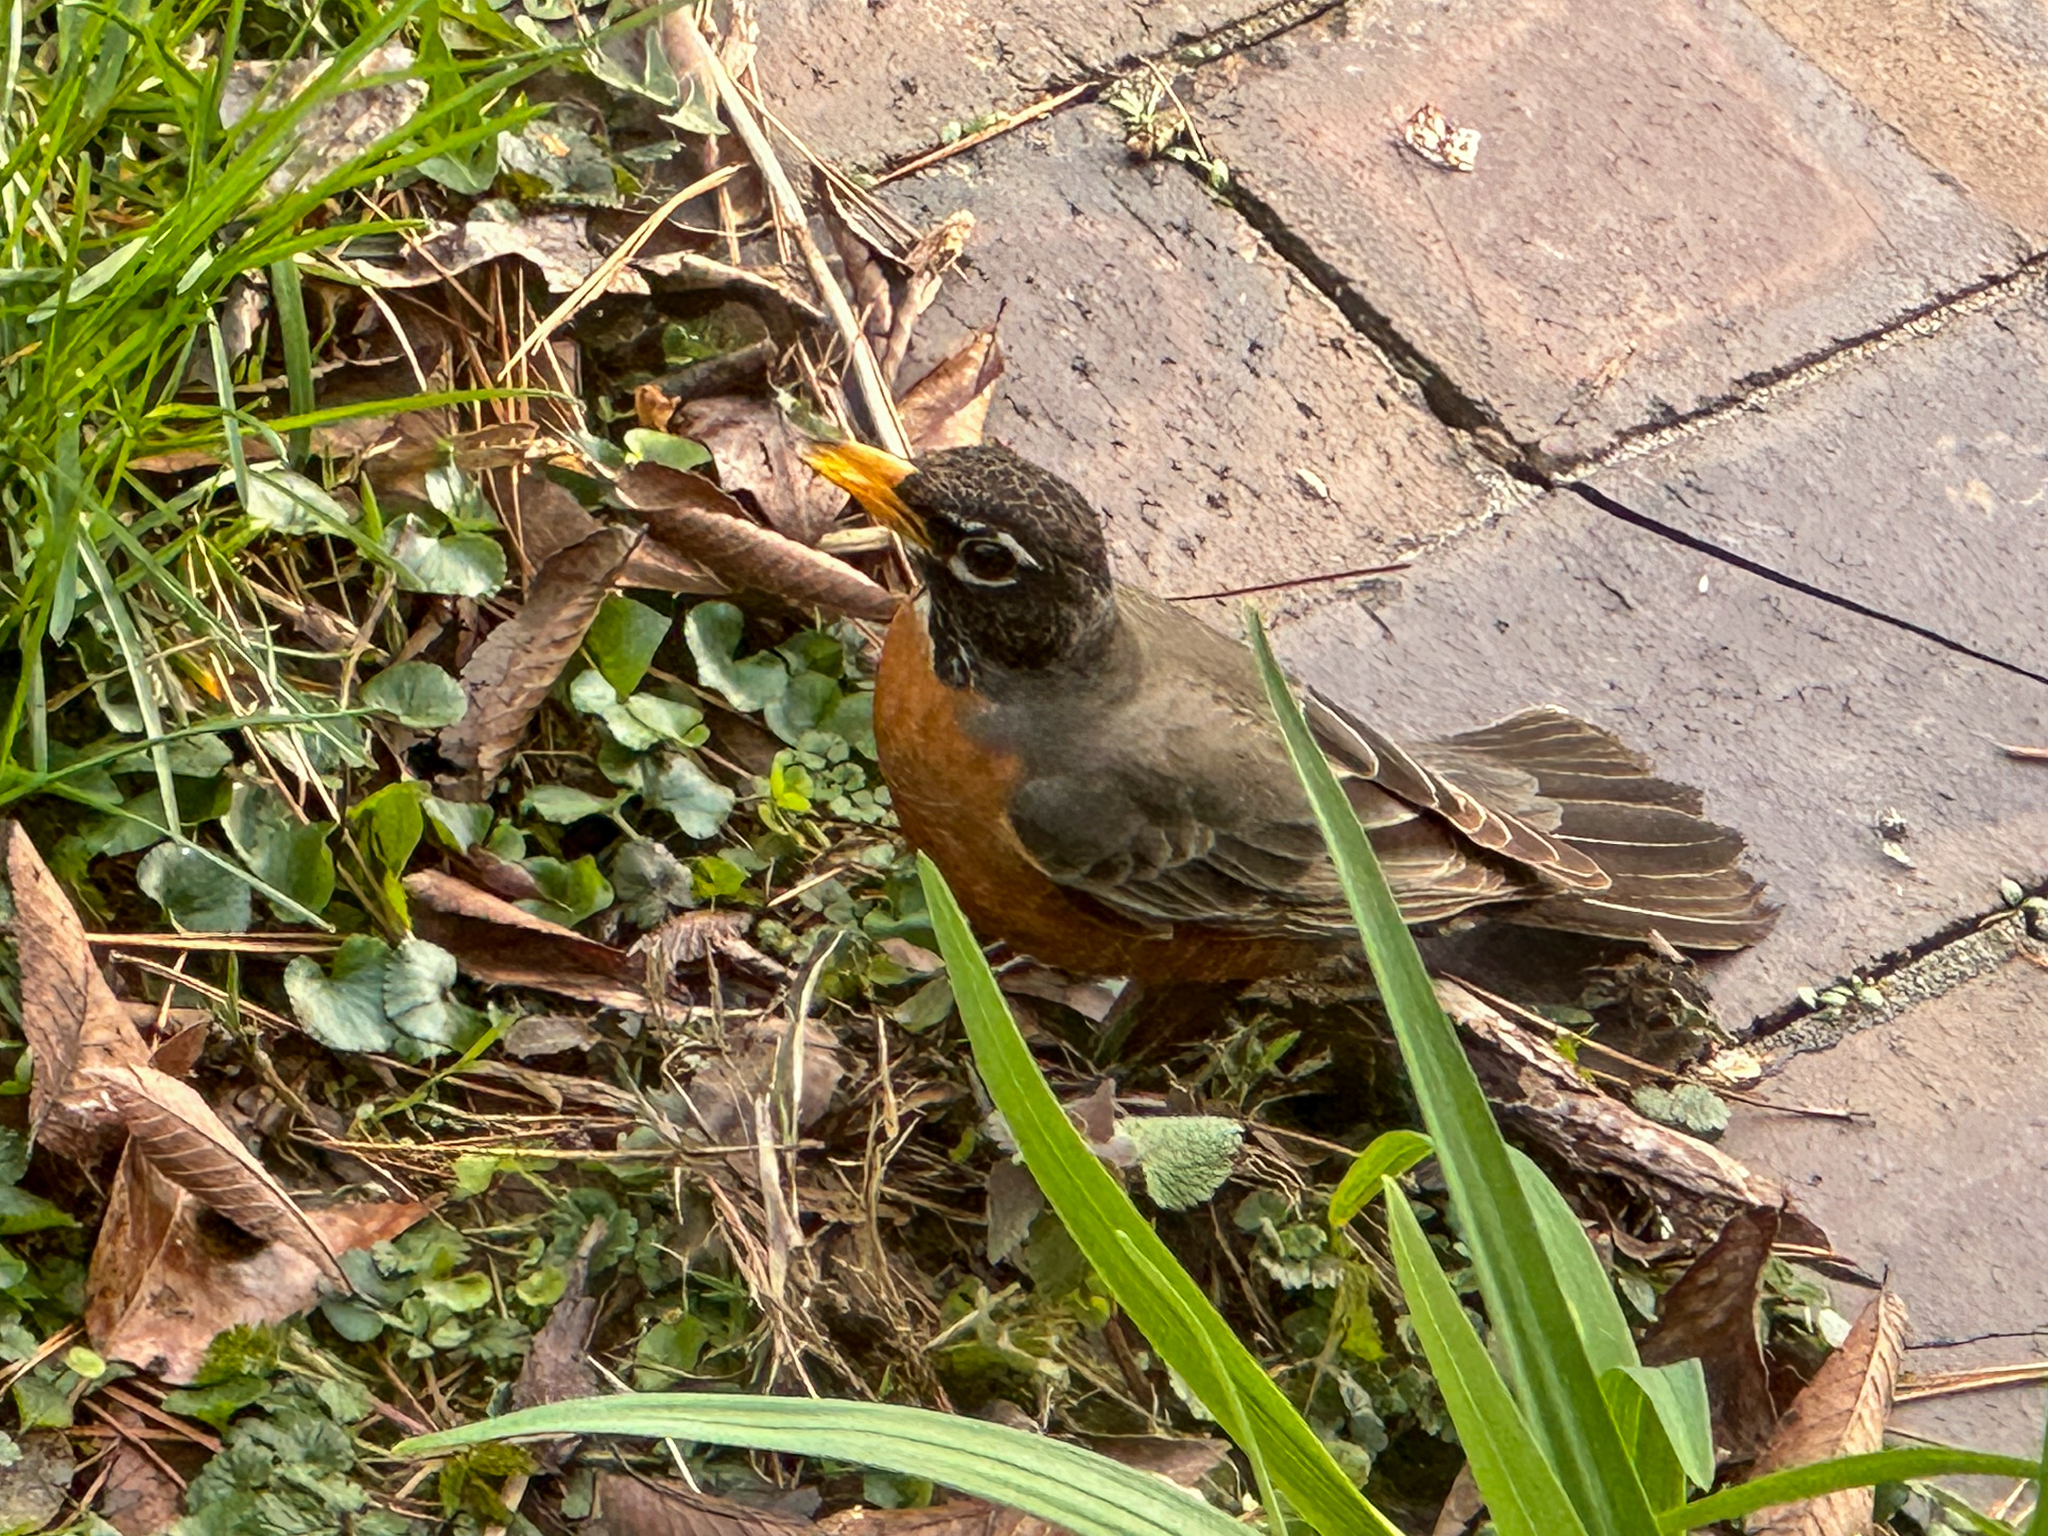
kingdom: Animalia
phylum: Chordata
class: Aves
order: Passeriformes
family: Turdidae
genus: Turdus
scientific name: Turdus migratorius
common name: American robin
